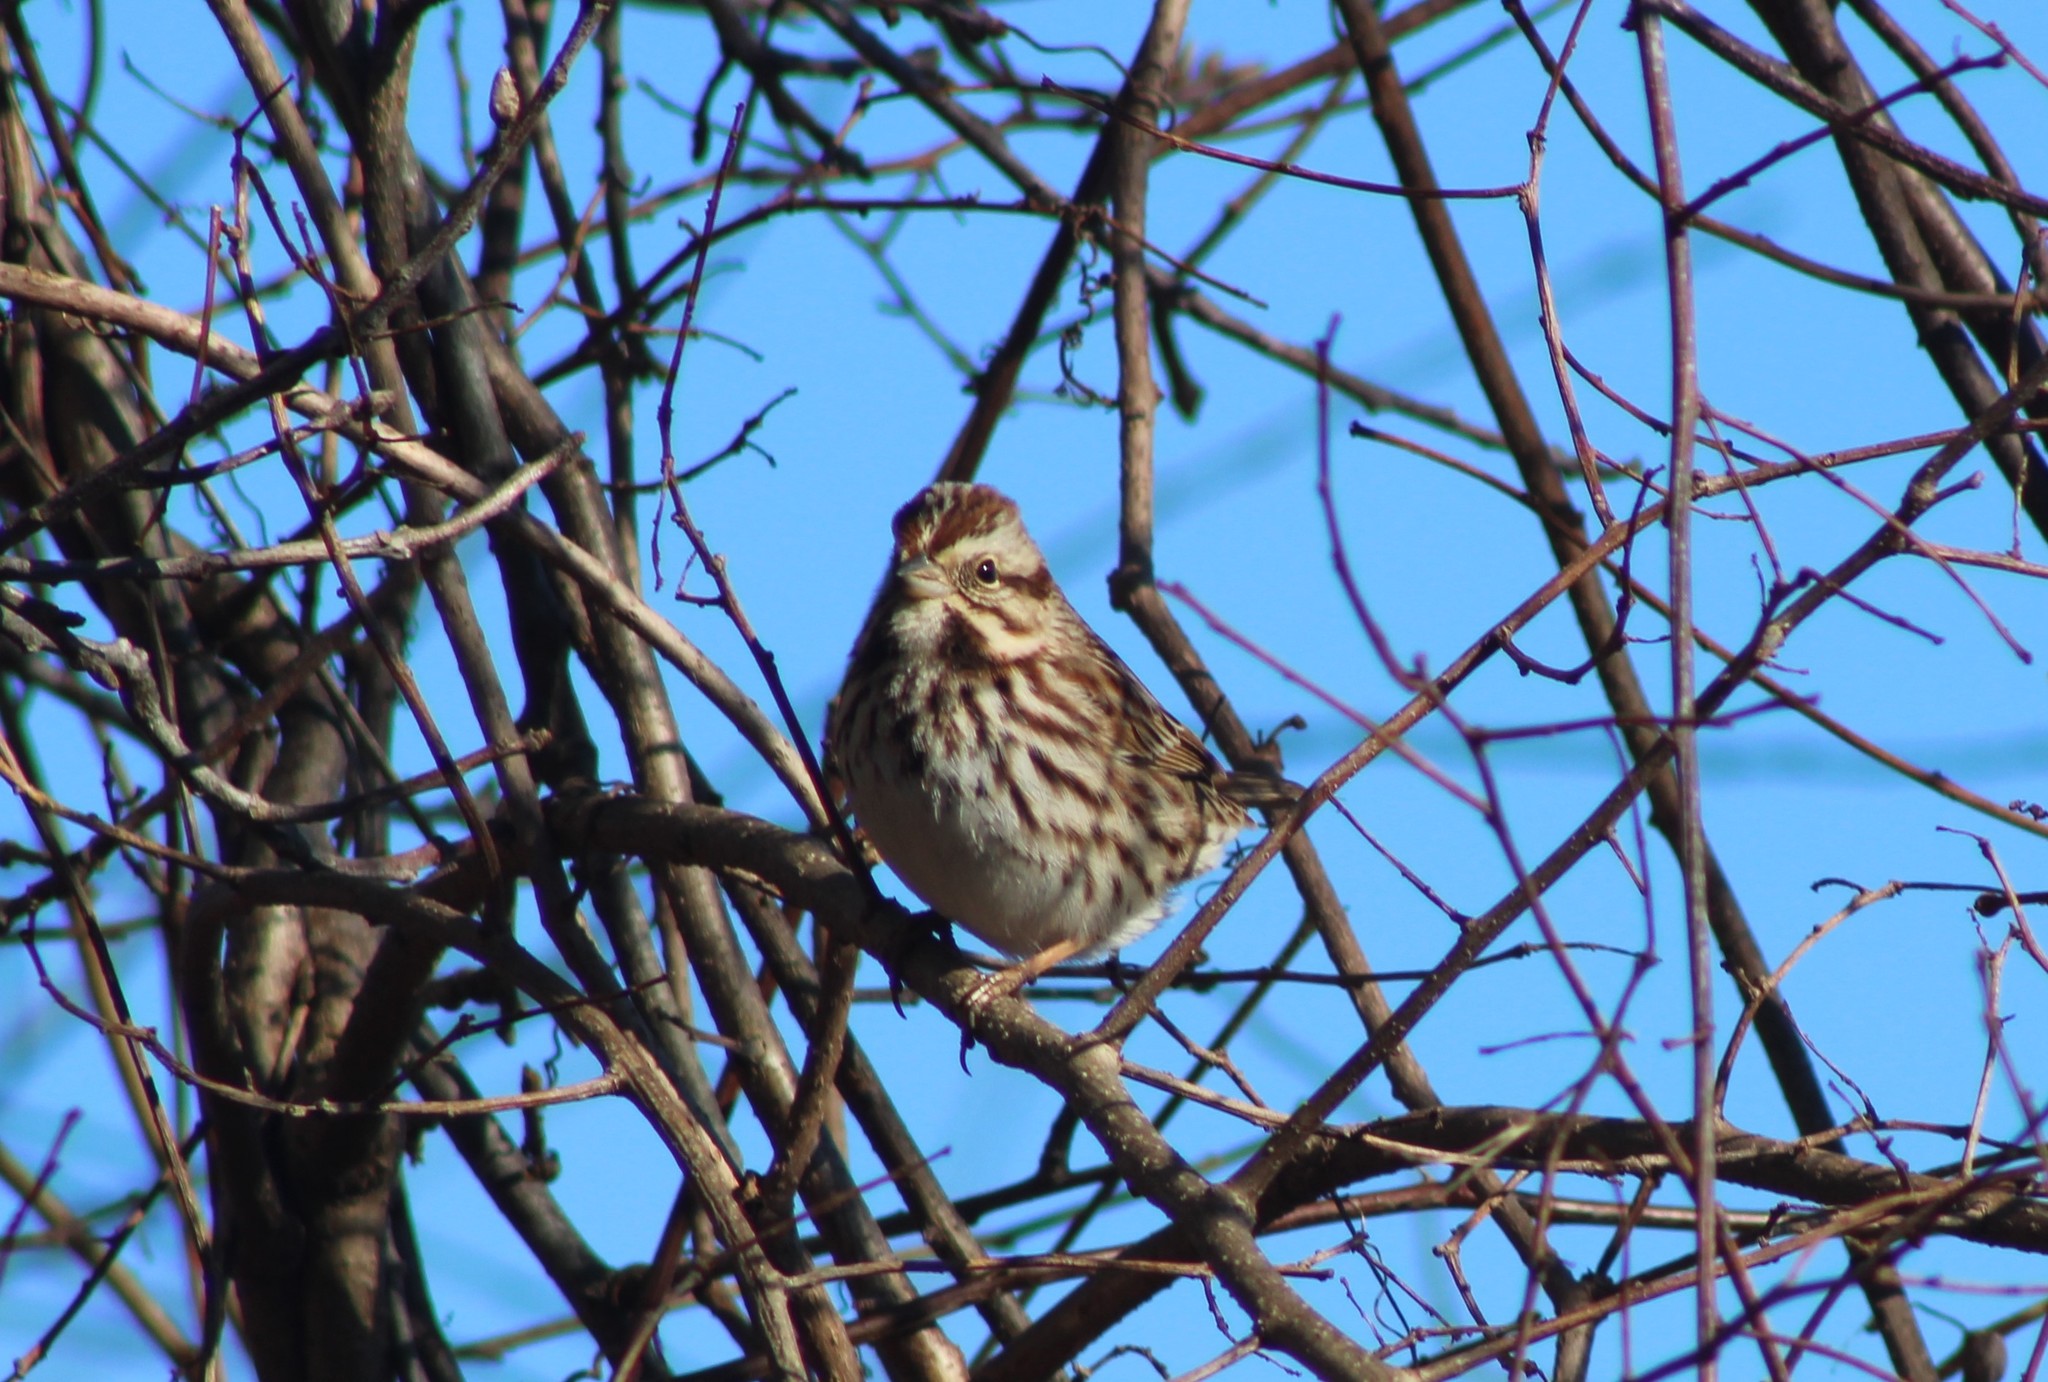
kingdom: Animalia
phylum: Chordata
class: Aves
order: Passeriformes
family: Passerellidae
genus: Melospiza
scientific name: Melospiza melodia
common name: Song sparrow
